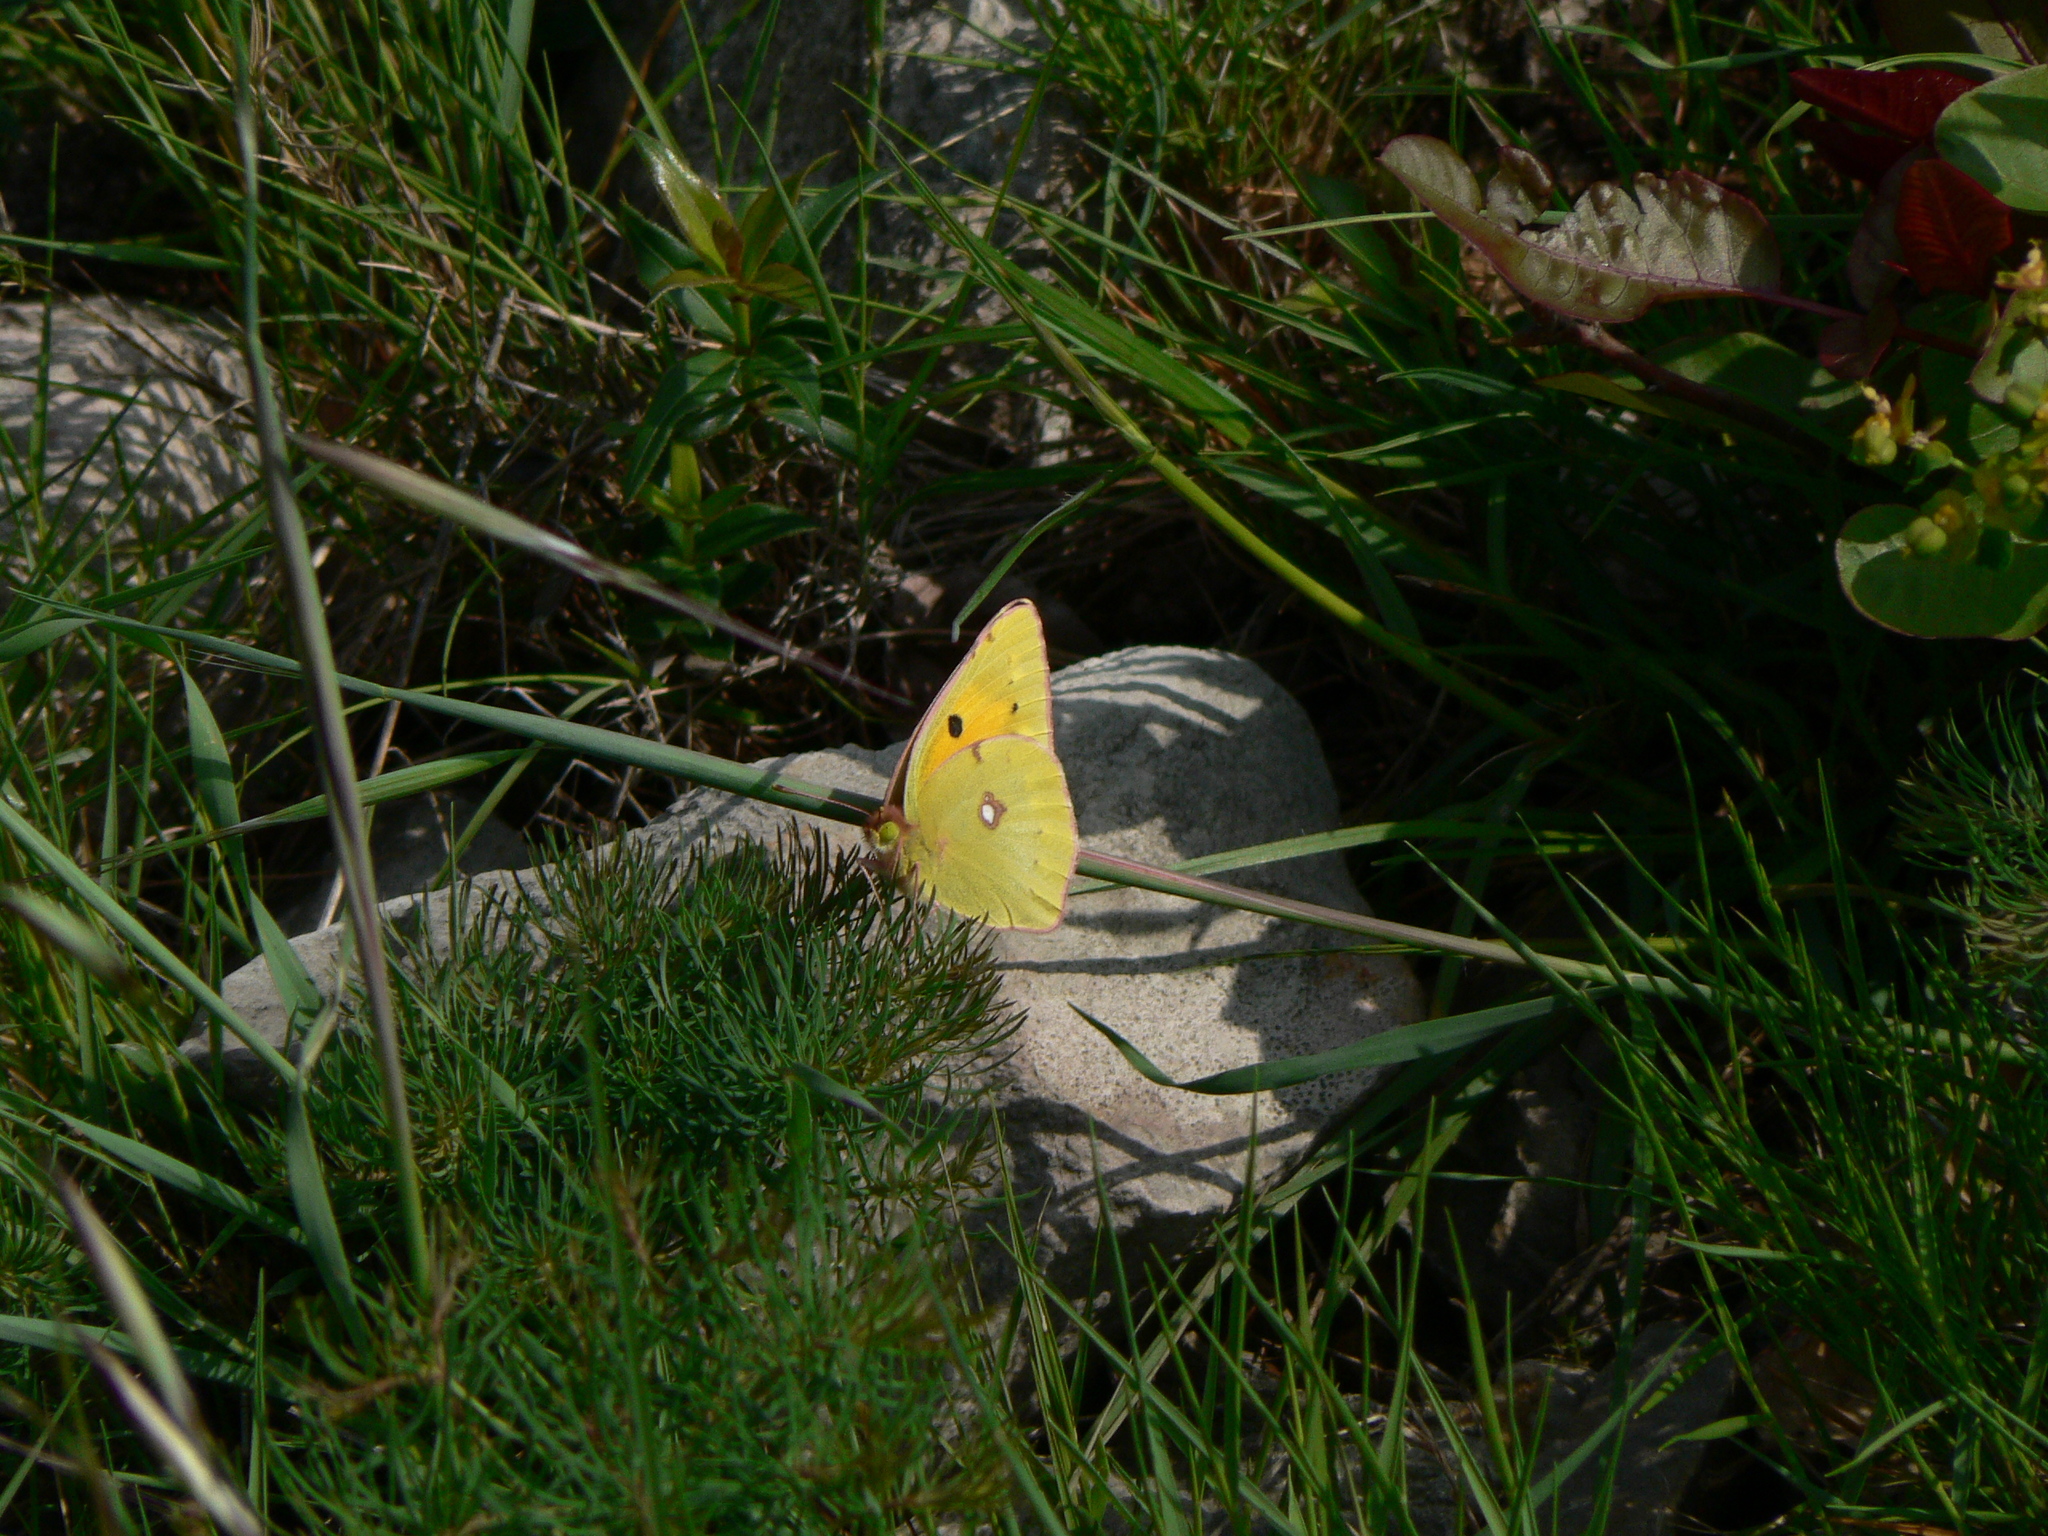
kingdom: Animalia
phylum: Arthropoda
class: Insecta
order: Lepidoptera
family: Pieridae
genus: Colias
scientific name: Colias croceus
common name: Clouded yellow
